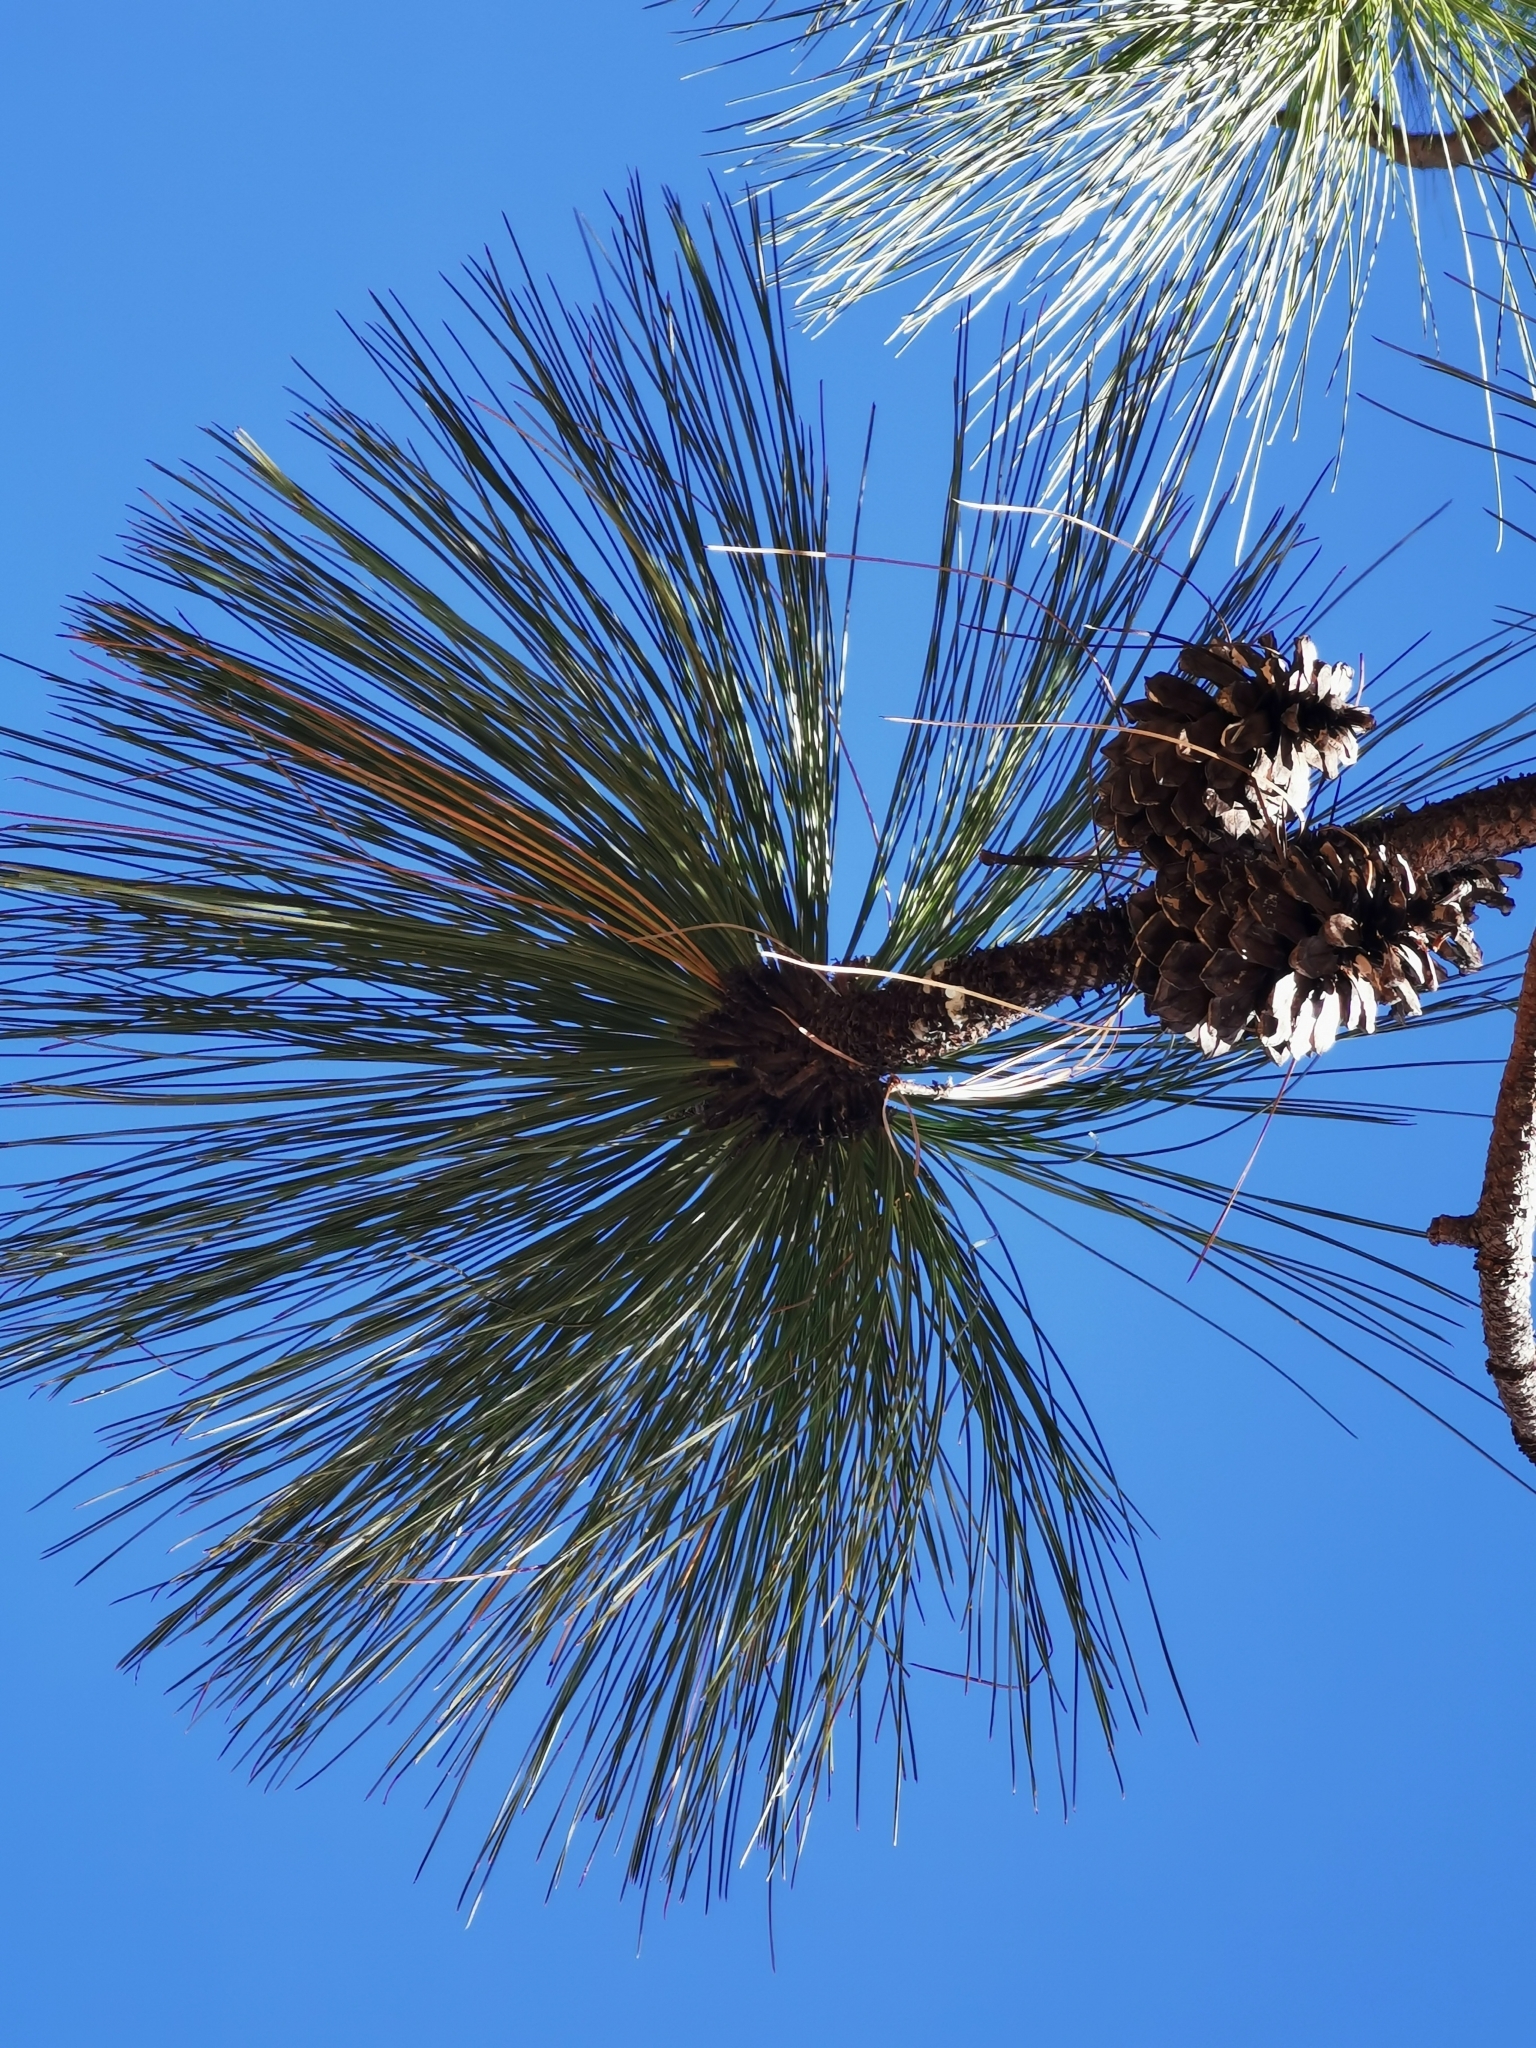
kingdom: Plantae
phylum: Tracheophyta
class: Pinopsida
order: Pinales
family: Pinaceae
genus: Pinus
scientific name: Pinus engelmannii
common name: Apache pine
